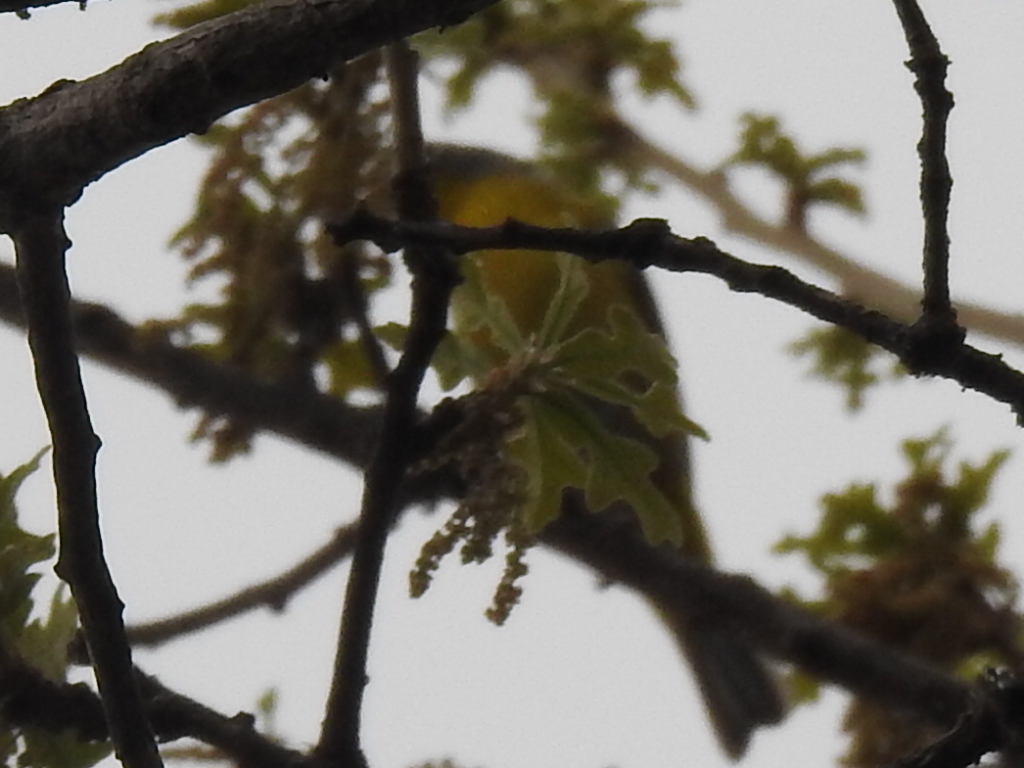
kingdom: Animalia
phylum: Chordata
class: Aves
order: Passeriformes
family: Parulidae
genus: Leiothlypis
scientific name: Leiothlypis ruficapilla
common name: Nashville warbler
